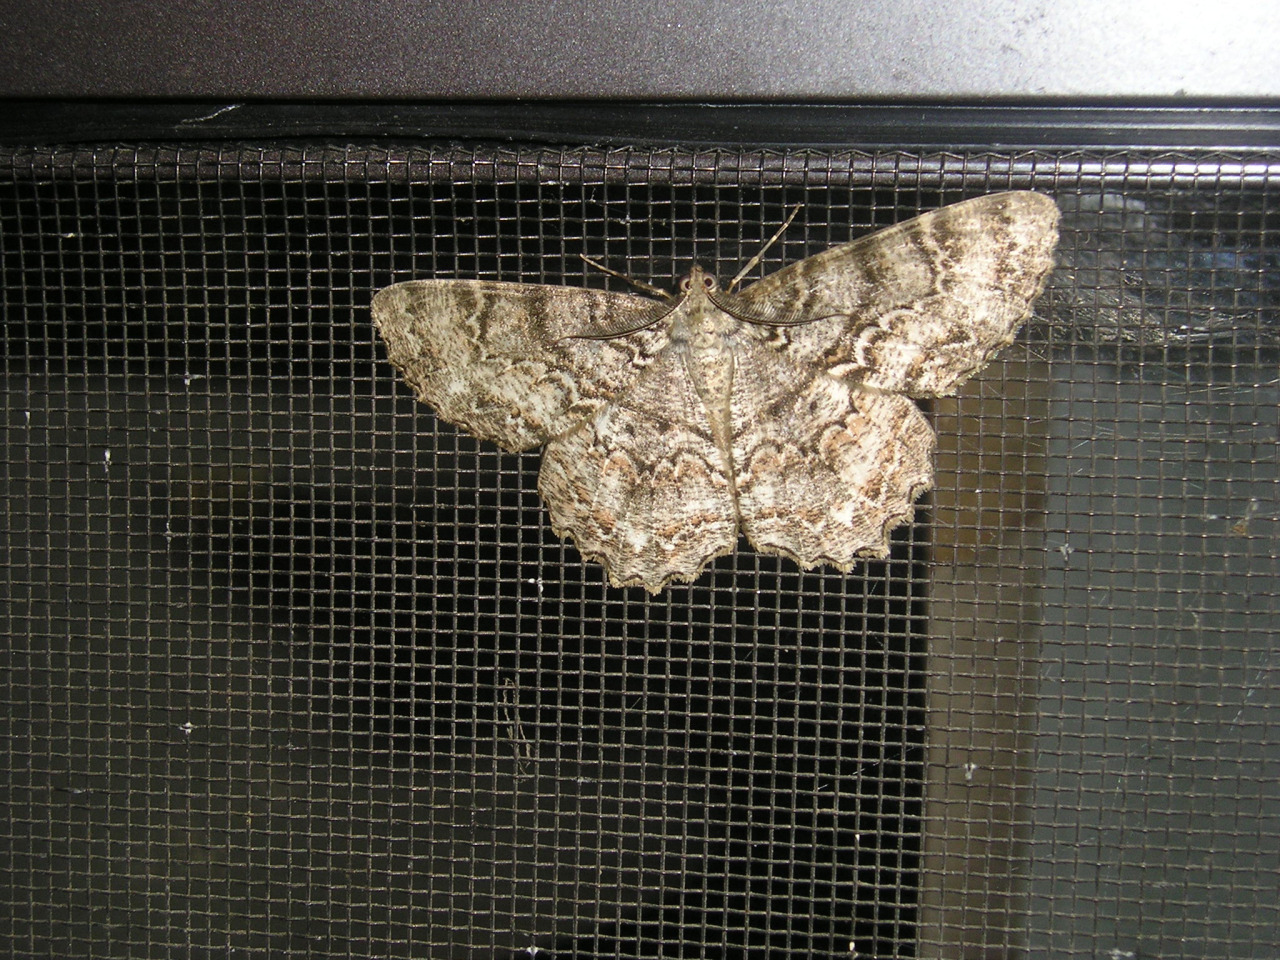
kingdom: Animalia
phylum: Arthropoda
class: Insecta
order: Lepidoptera
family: Geometridae
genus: Epimecis
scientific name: Epimecis hortaria
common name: Tulip-tree beauty
